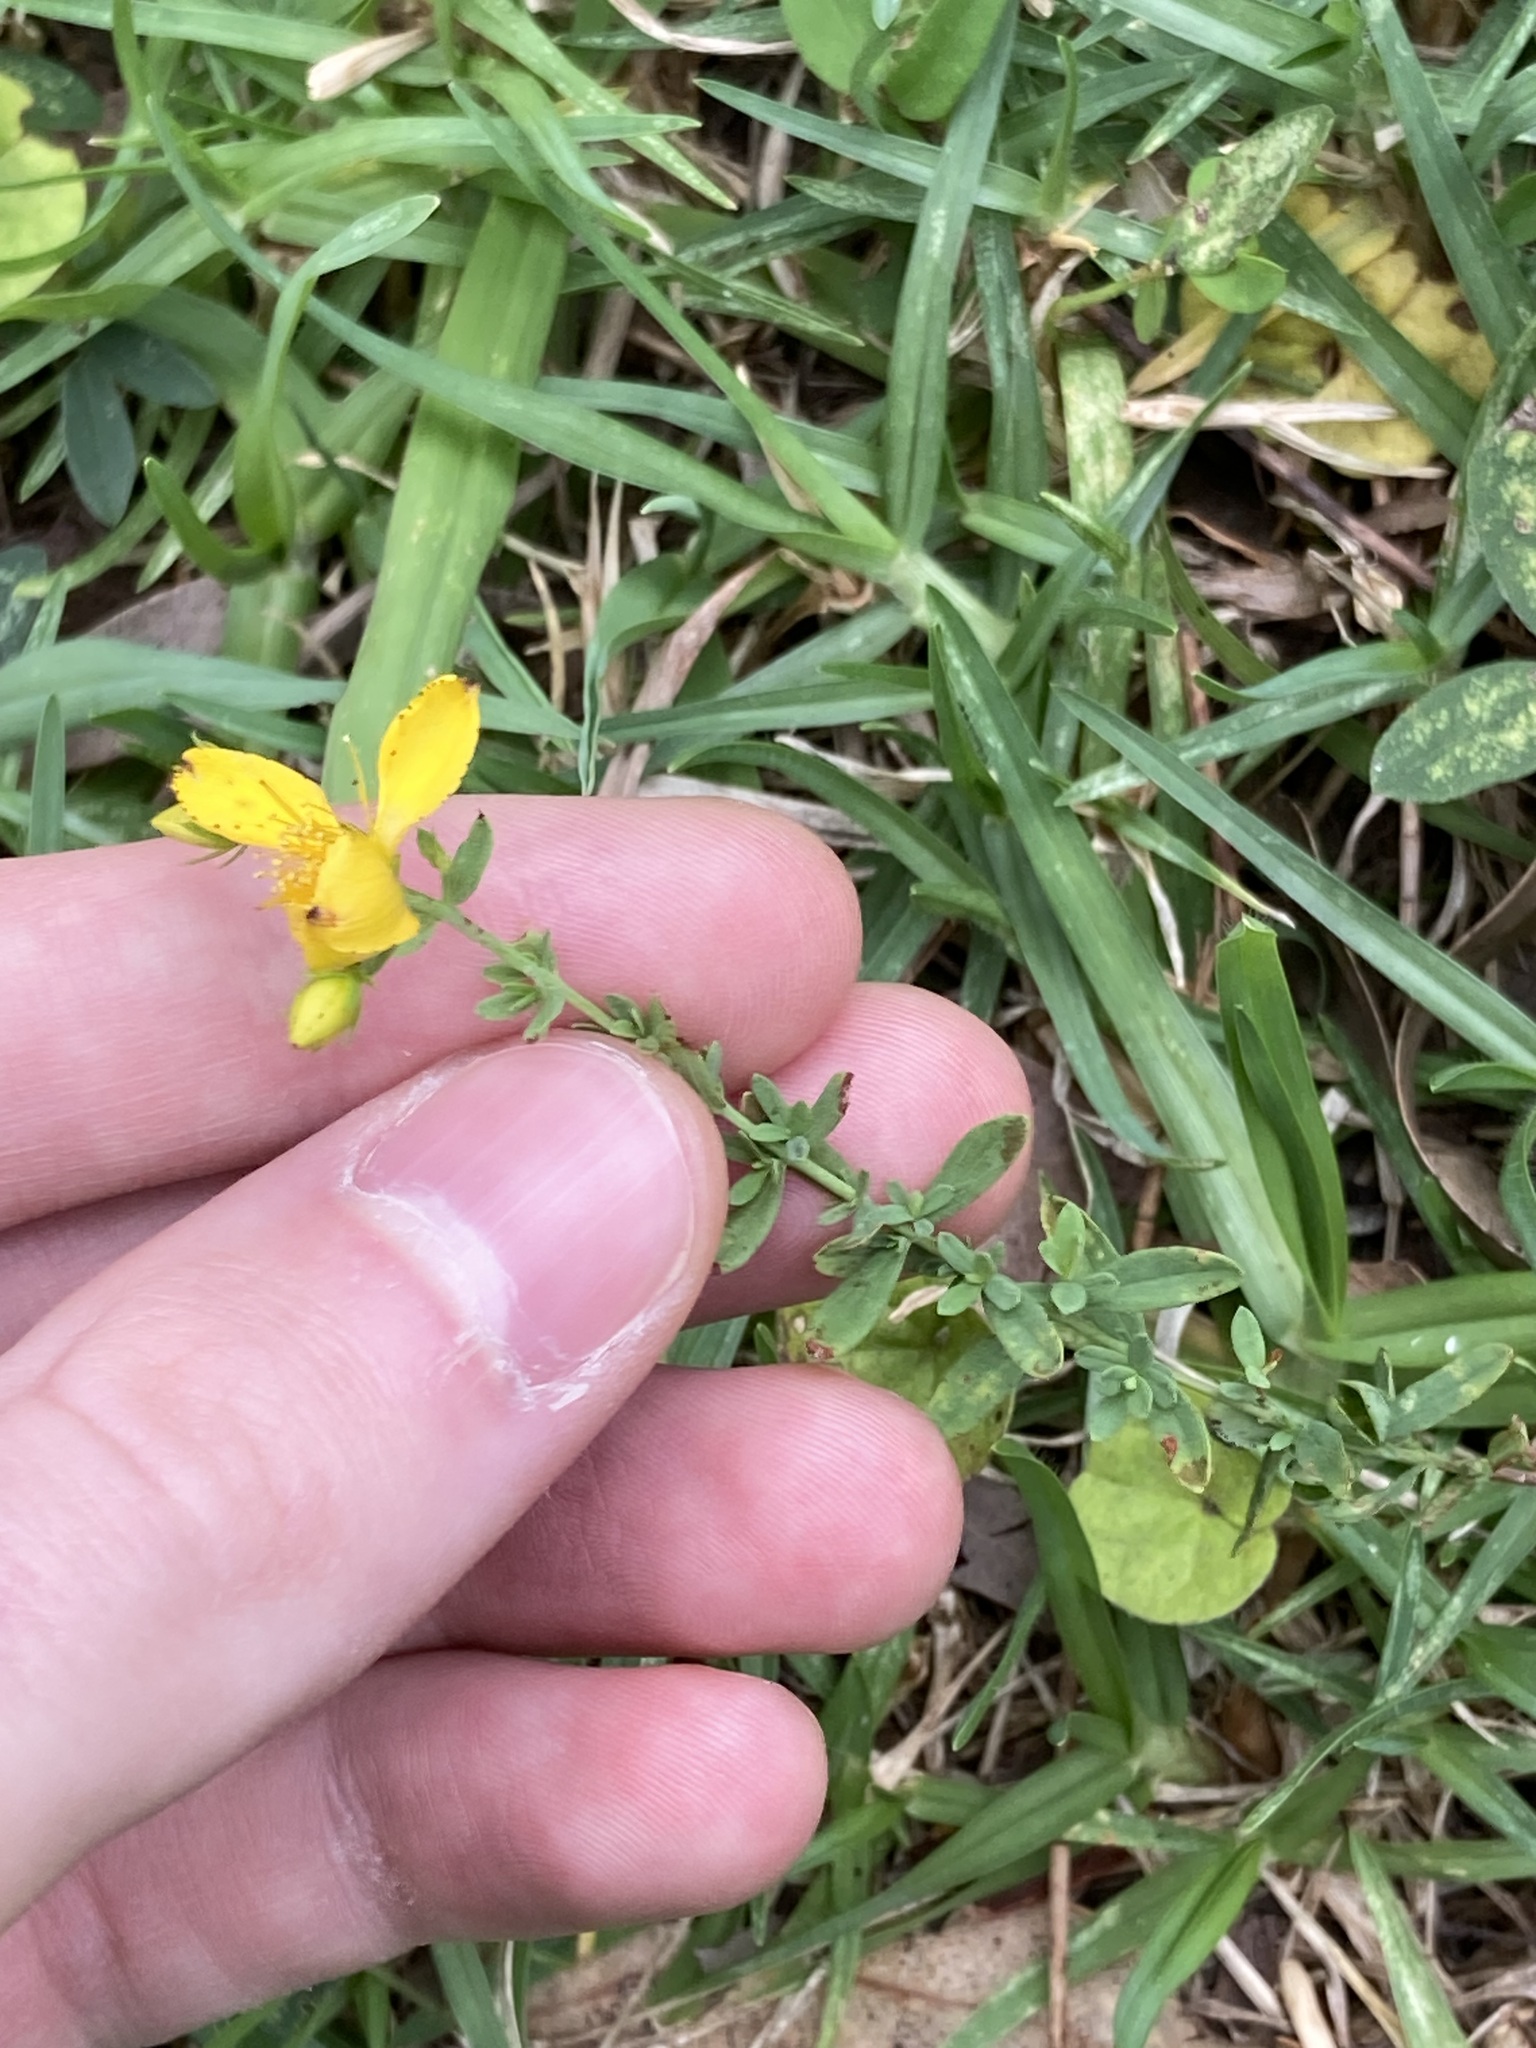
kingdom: Plantae
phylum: Tracheophyta
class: Magnoliopsida
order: Malpighiales
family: Hypericaceae
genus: Hypericum
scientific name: Hypericum perforatum
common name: Common st. johnswort
